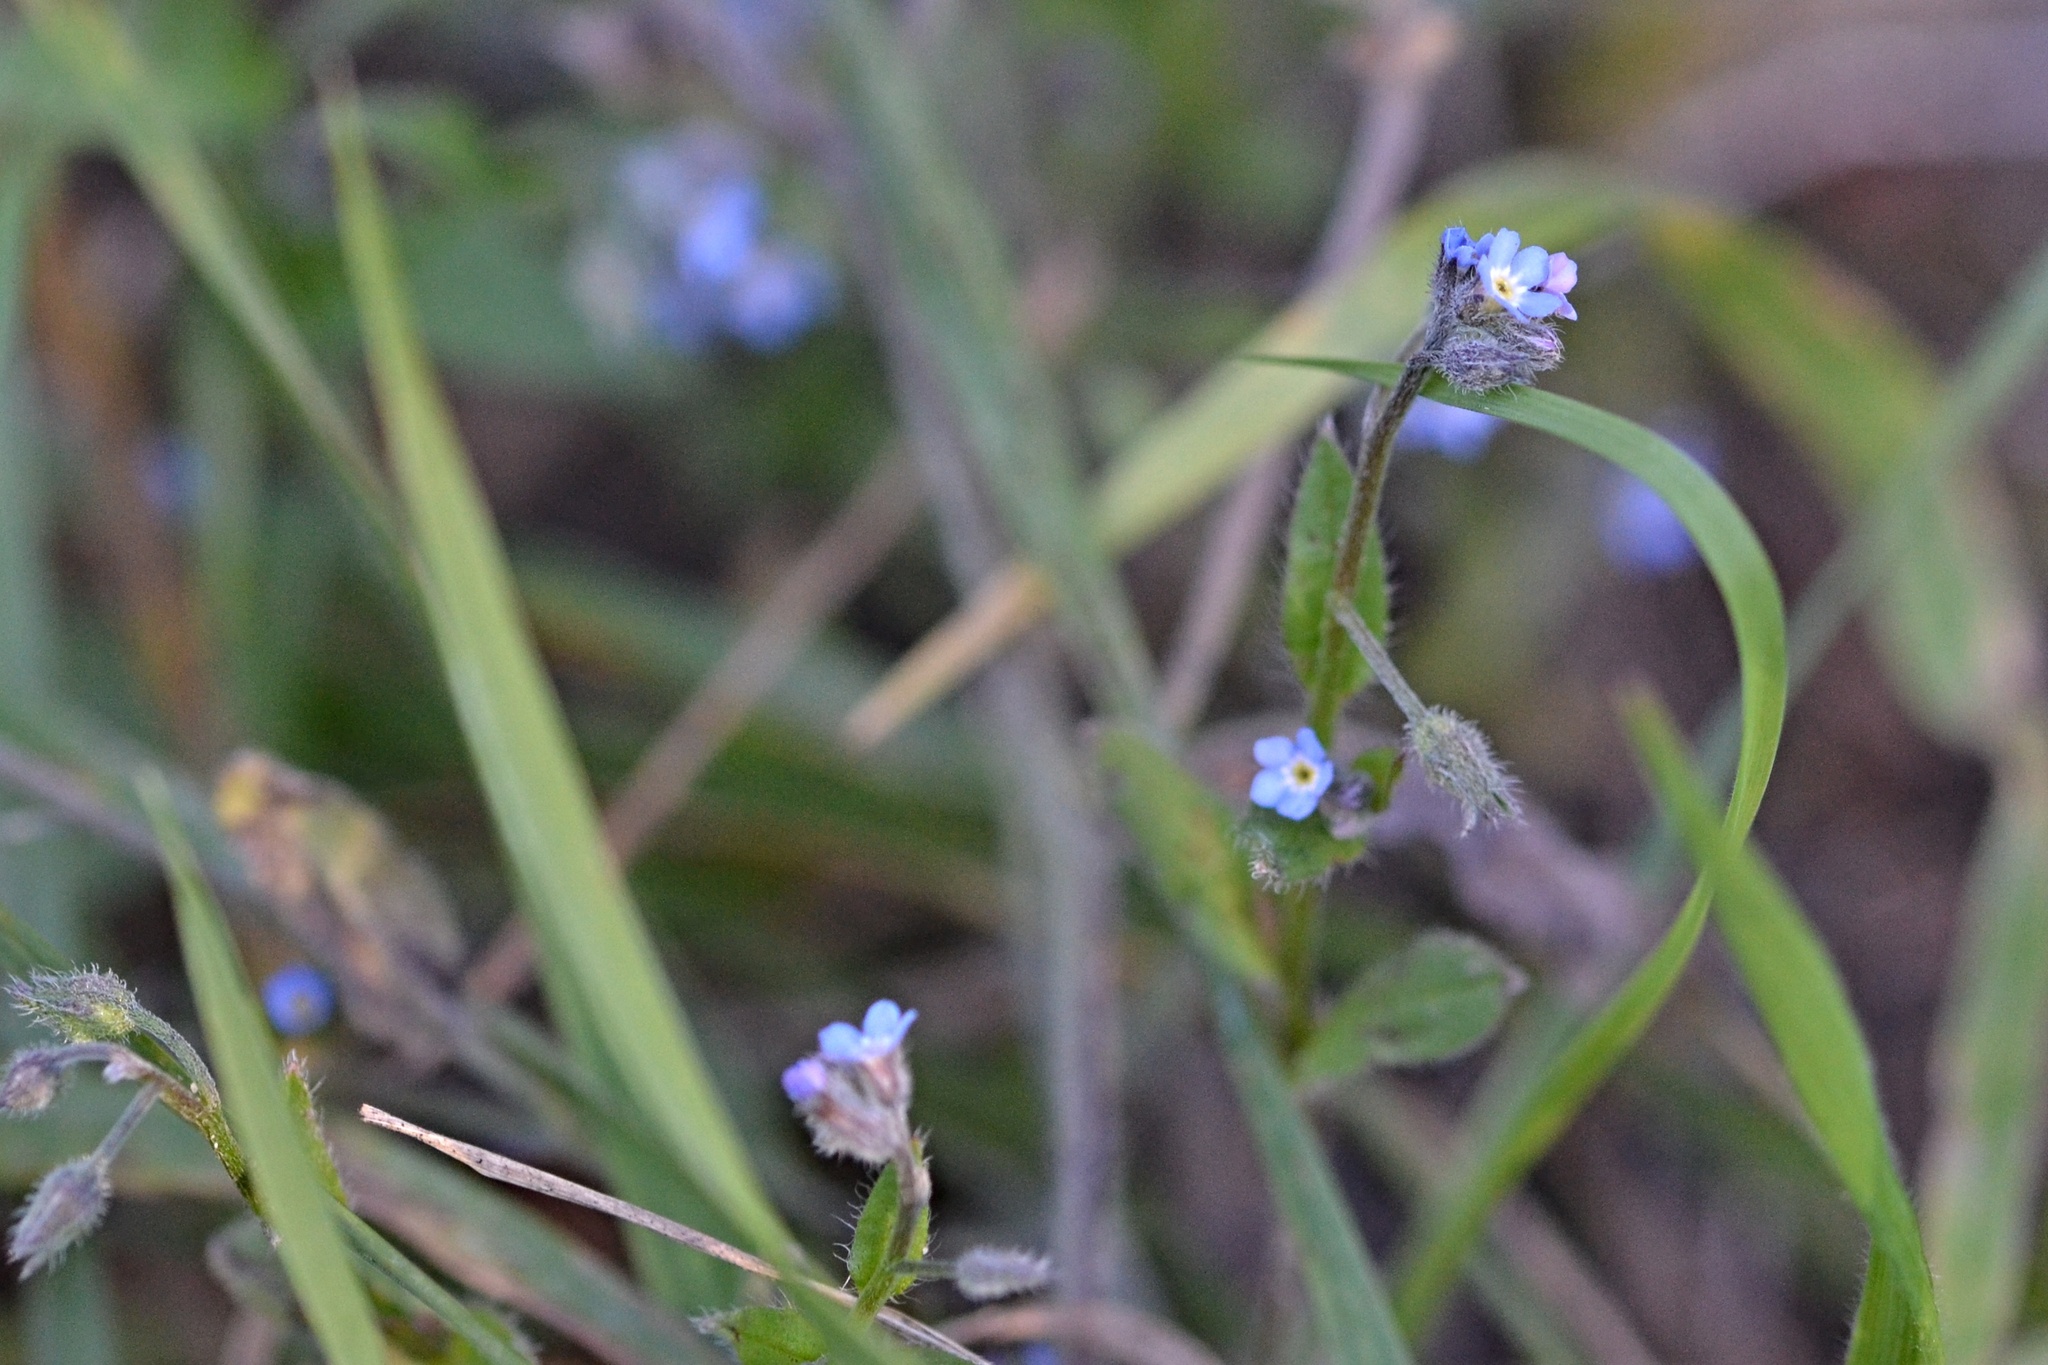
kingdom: Plantae
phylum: Tracheophyta
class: Magnoliopsida
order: Boraginales
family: Boraginaceae
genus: Myosotis
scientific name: Myosotis arvensis
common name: Field forget-me-not
